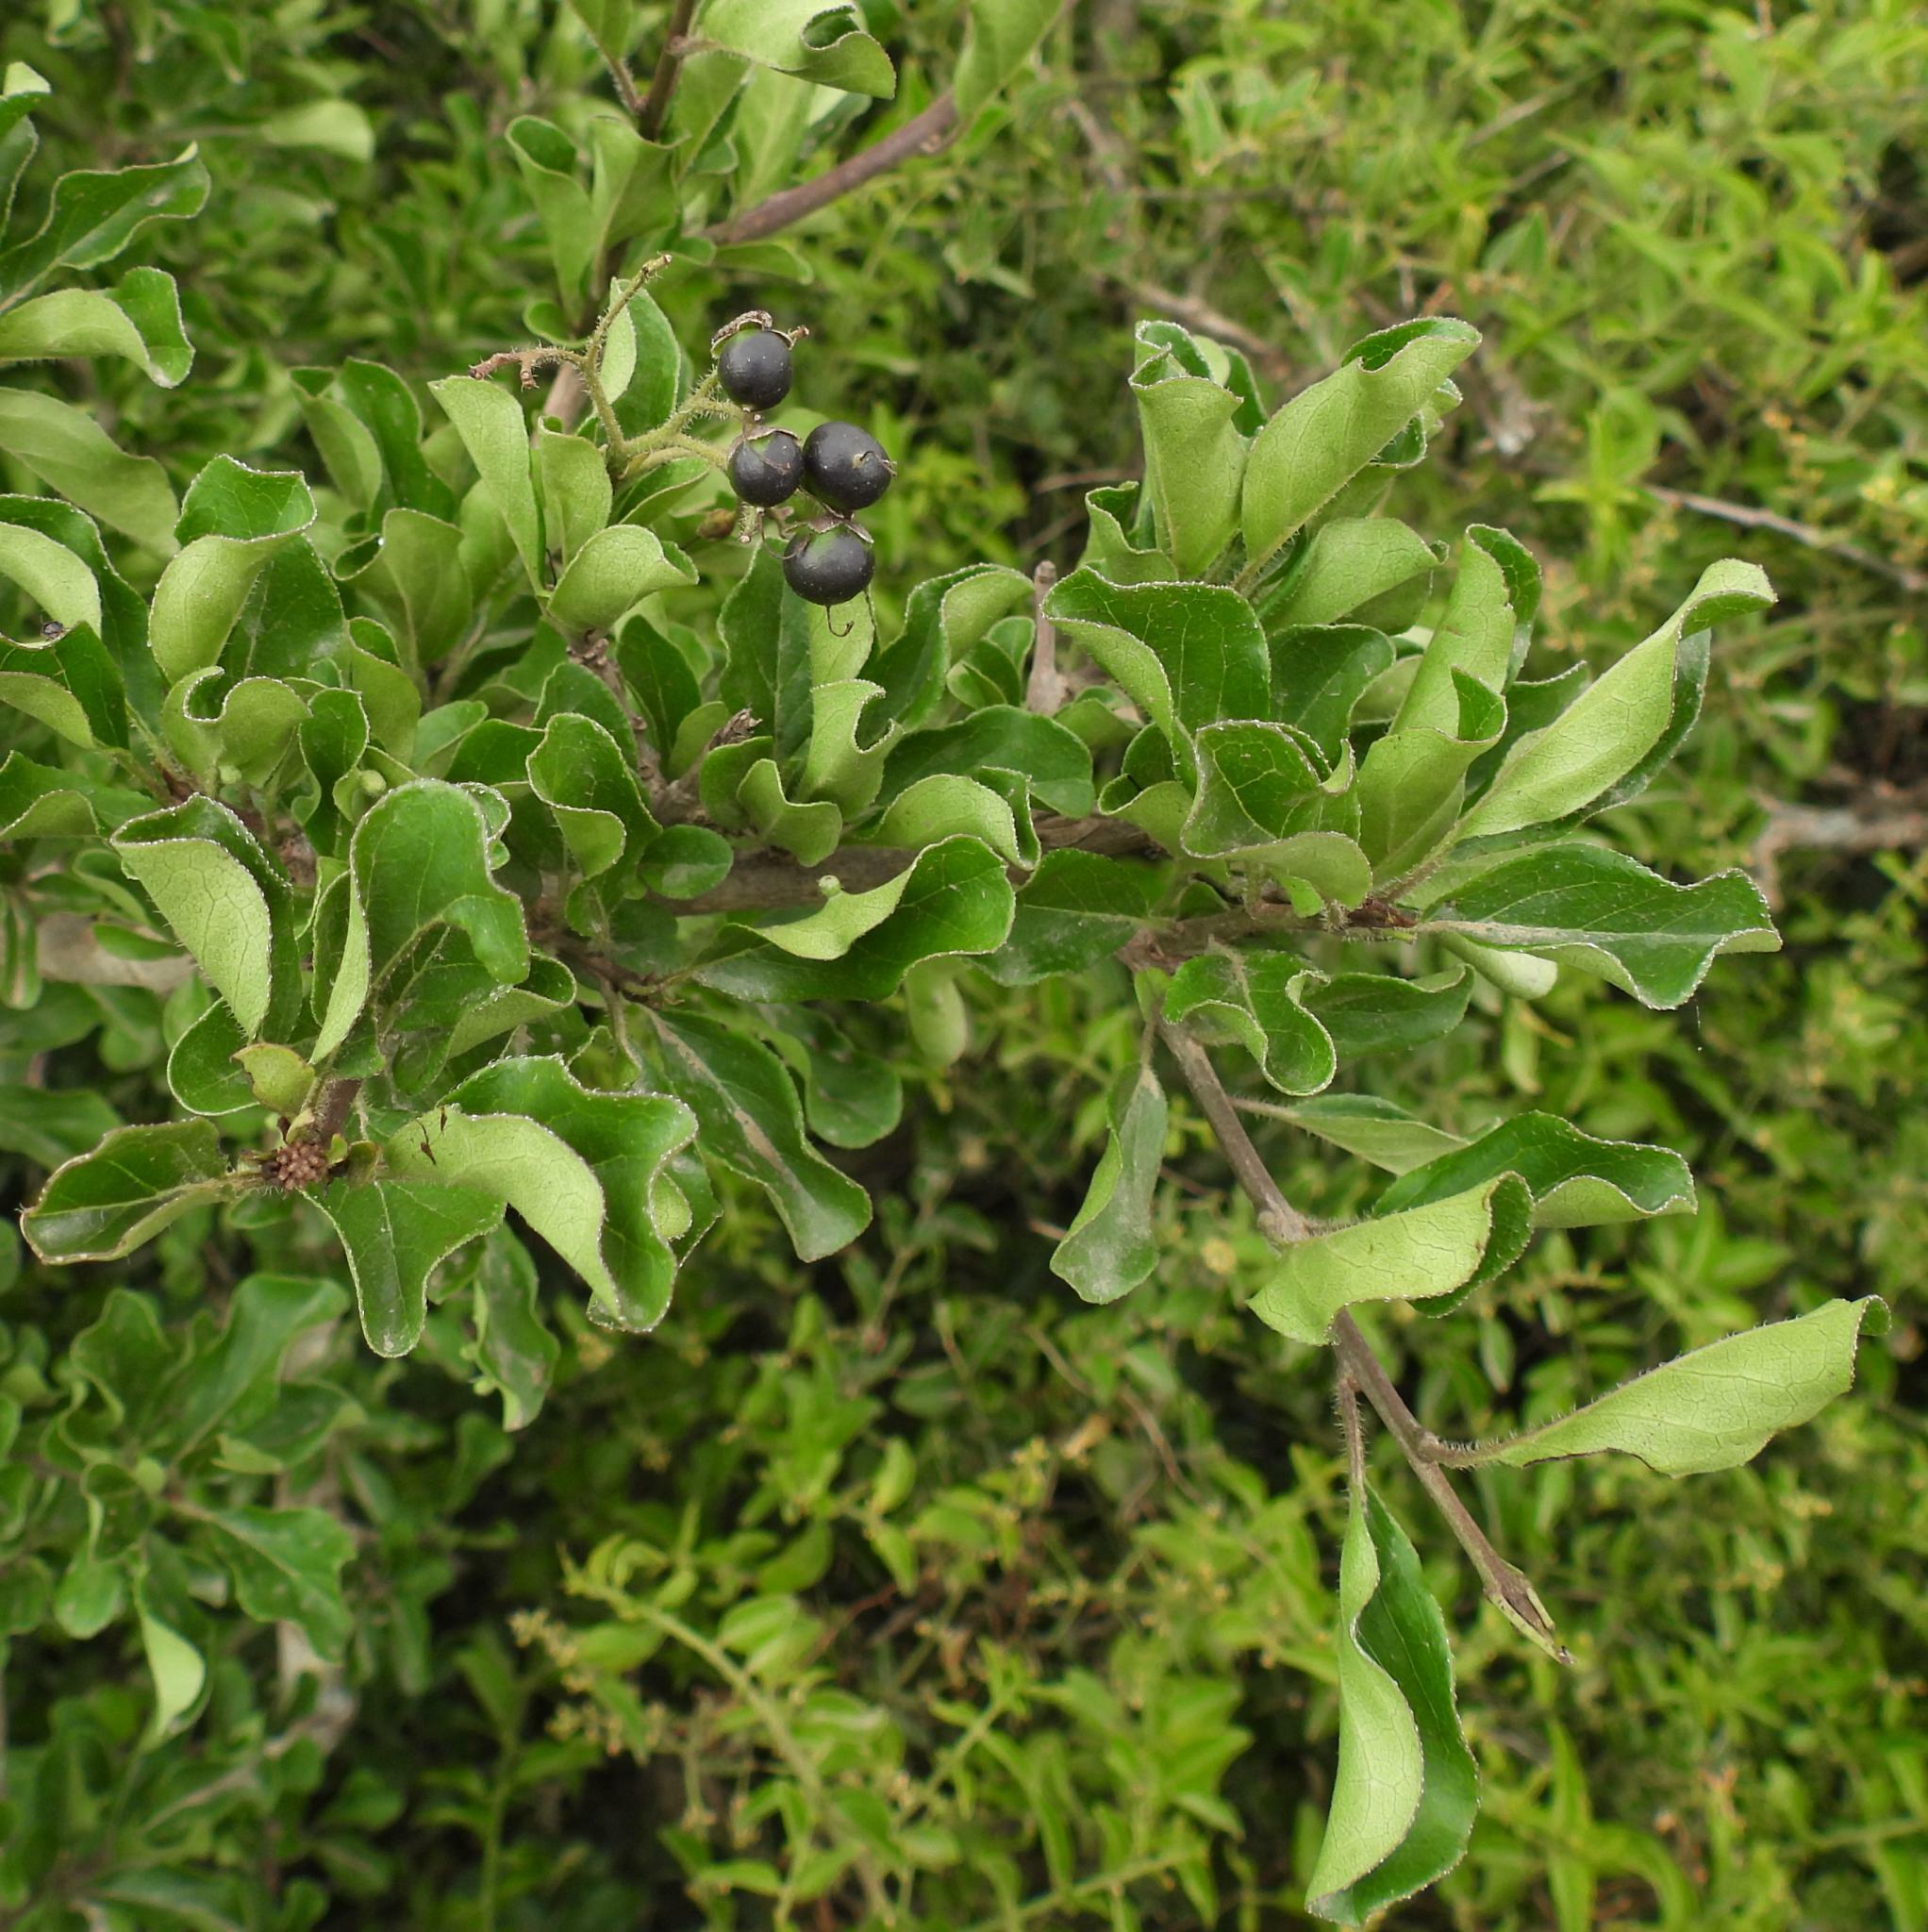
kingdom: Plantae
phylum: Tracheophyta
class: Magnoliopsida
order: Boraginales
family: Ehretiaceae
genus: Ehretia
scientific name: Ehretia rigida
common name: Cape lilac
